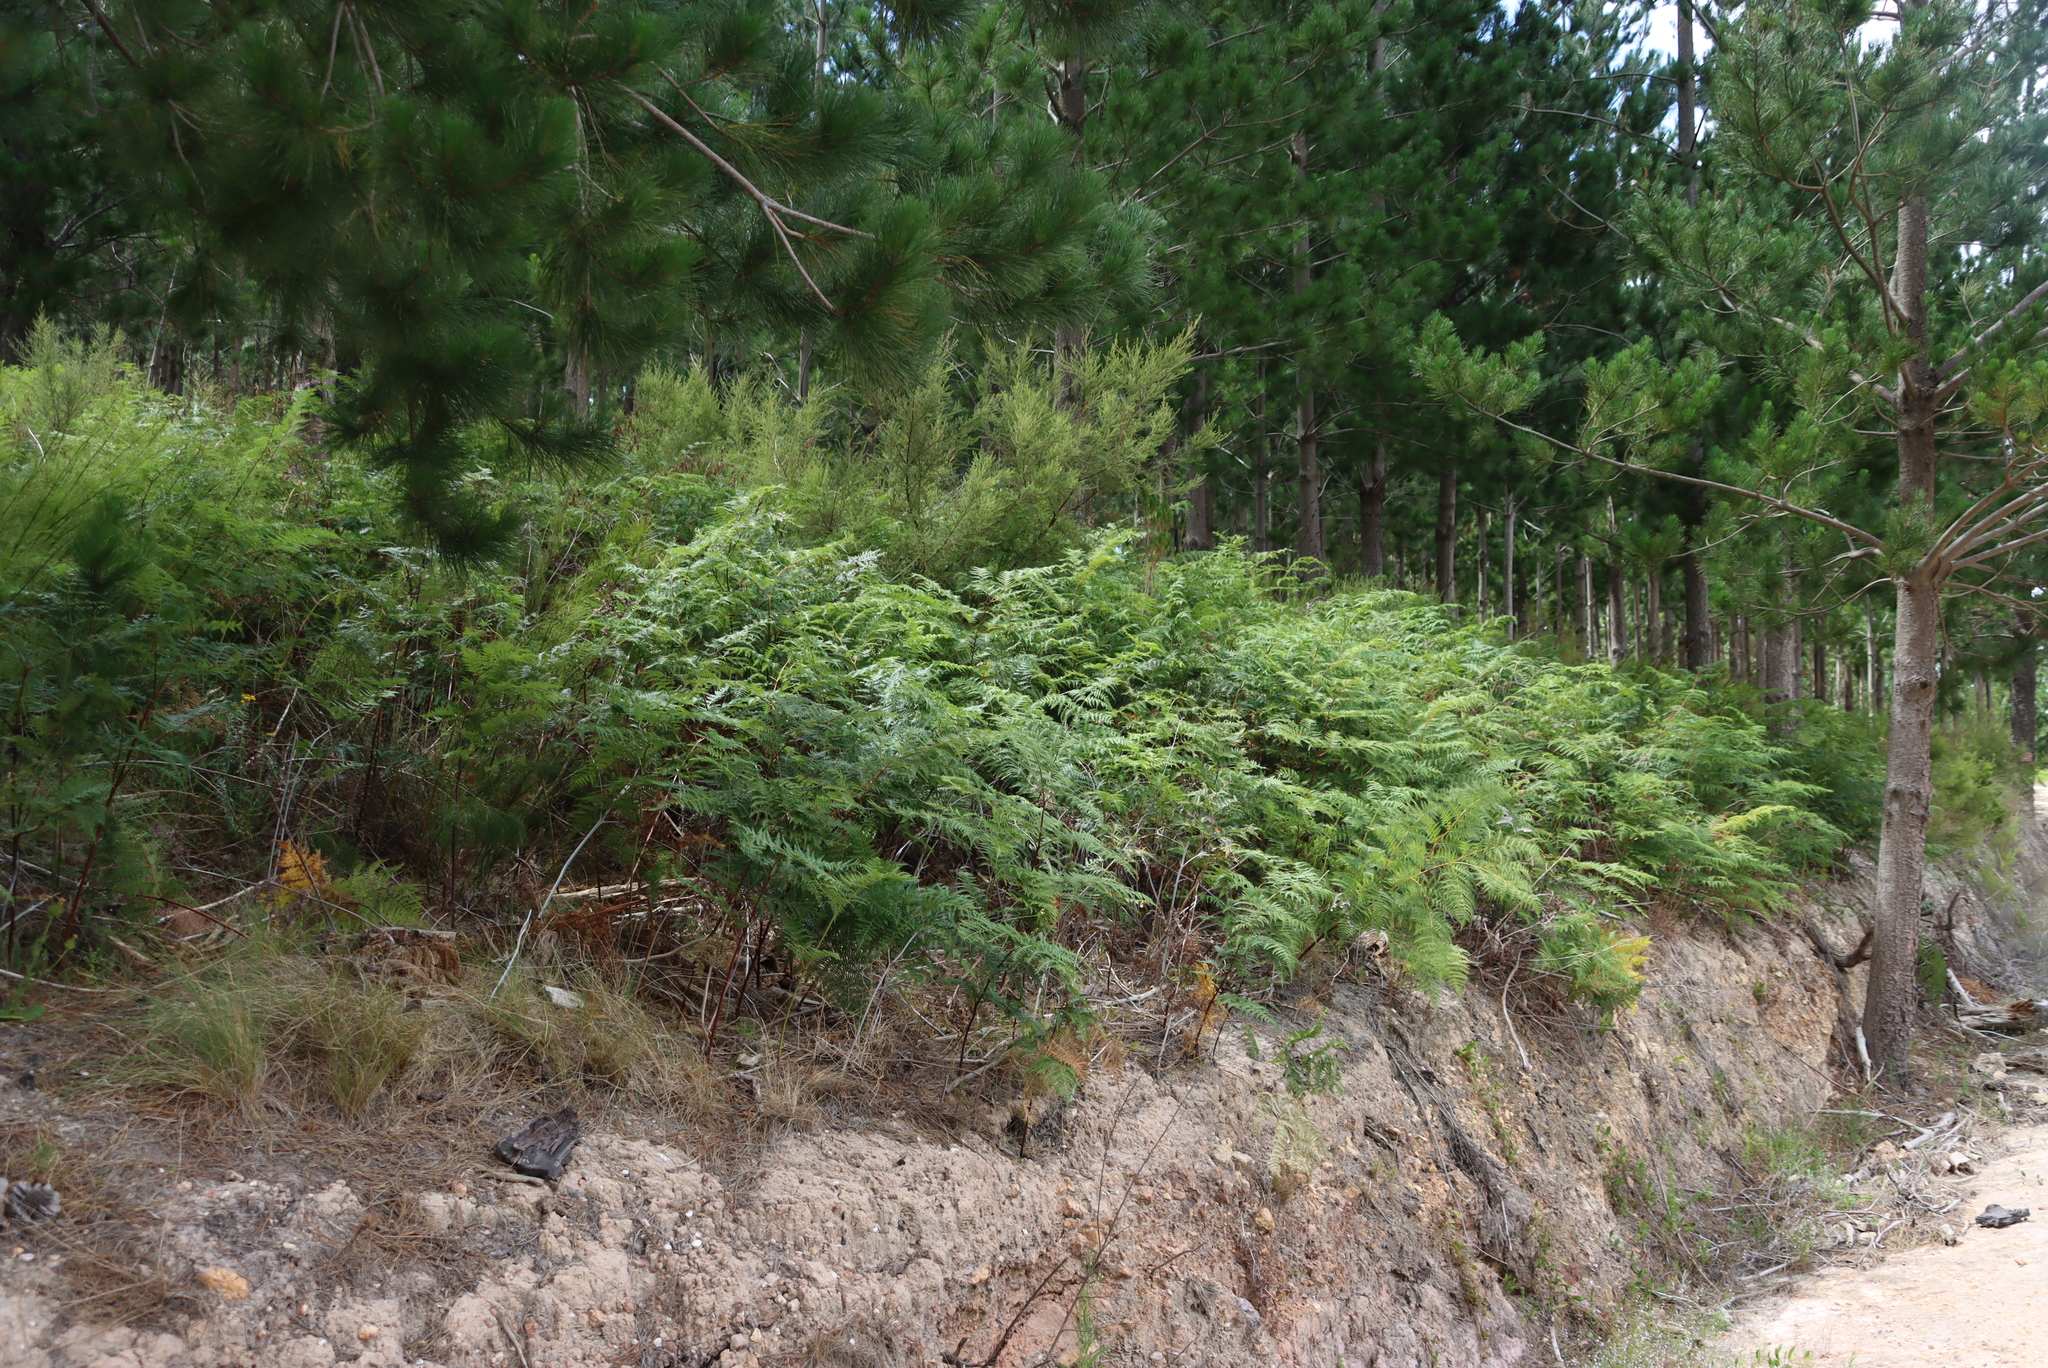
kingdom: Plantae
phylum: Tracheophyta
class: Polypodiopsida
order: Polypodiales
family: Dennstaedtiaceae
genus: Pteridium
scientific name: Pteridium aquilinum
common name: Bracken
